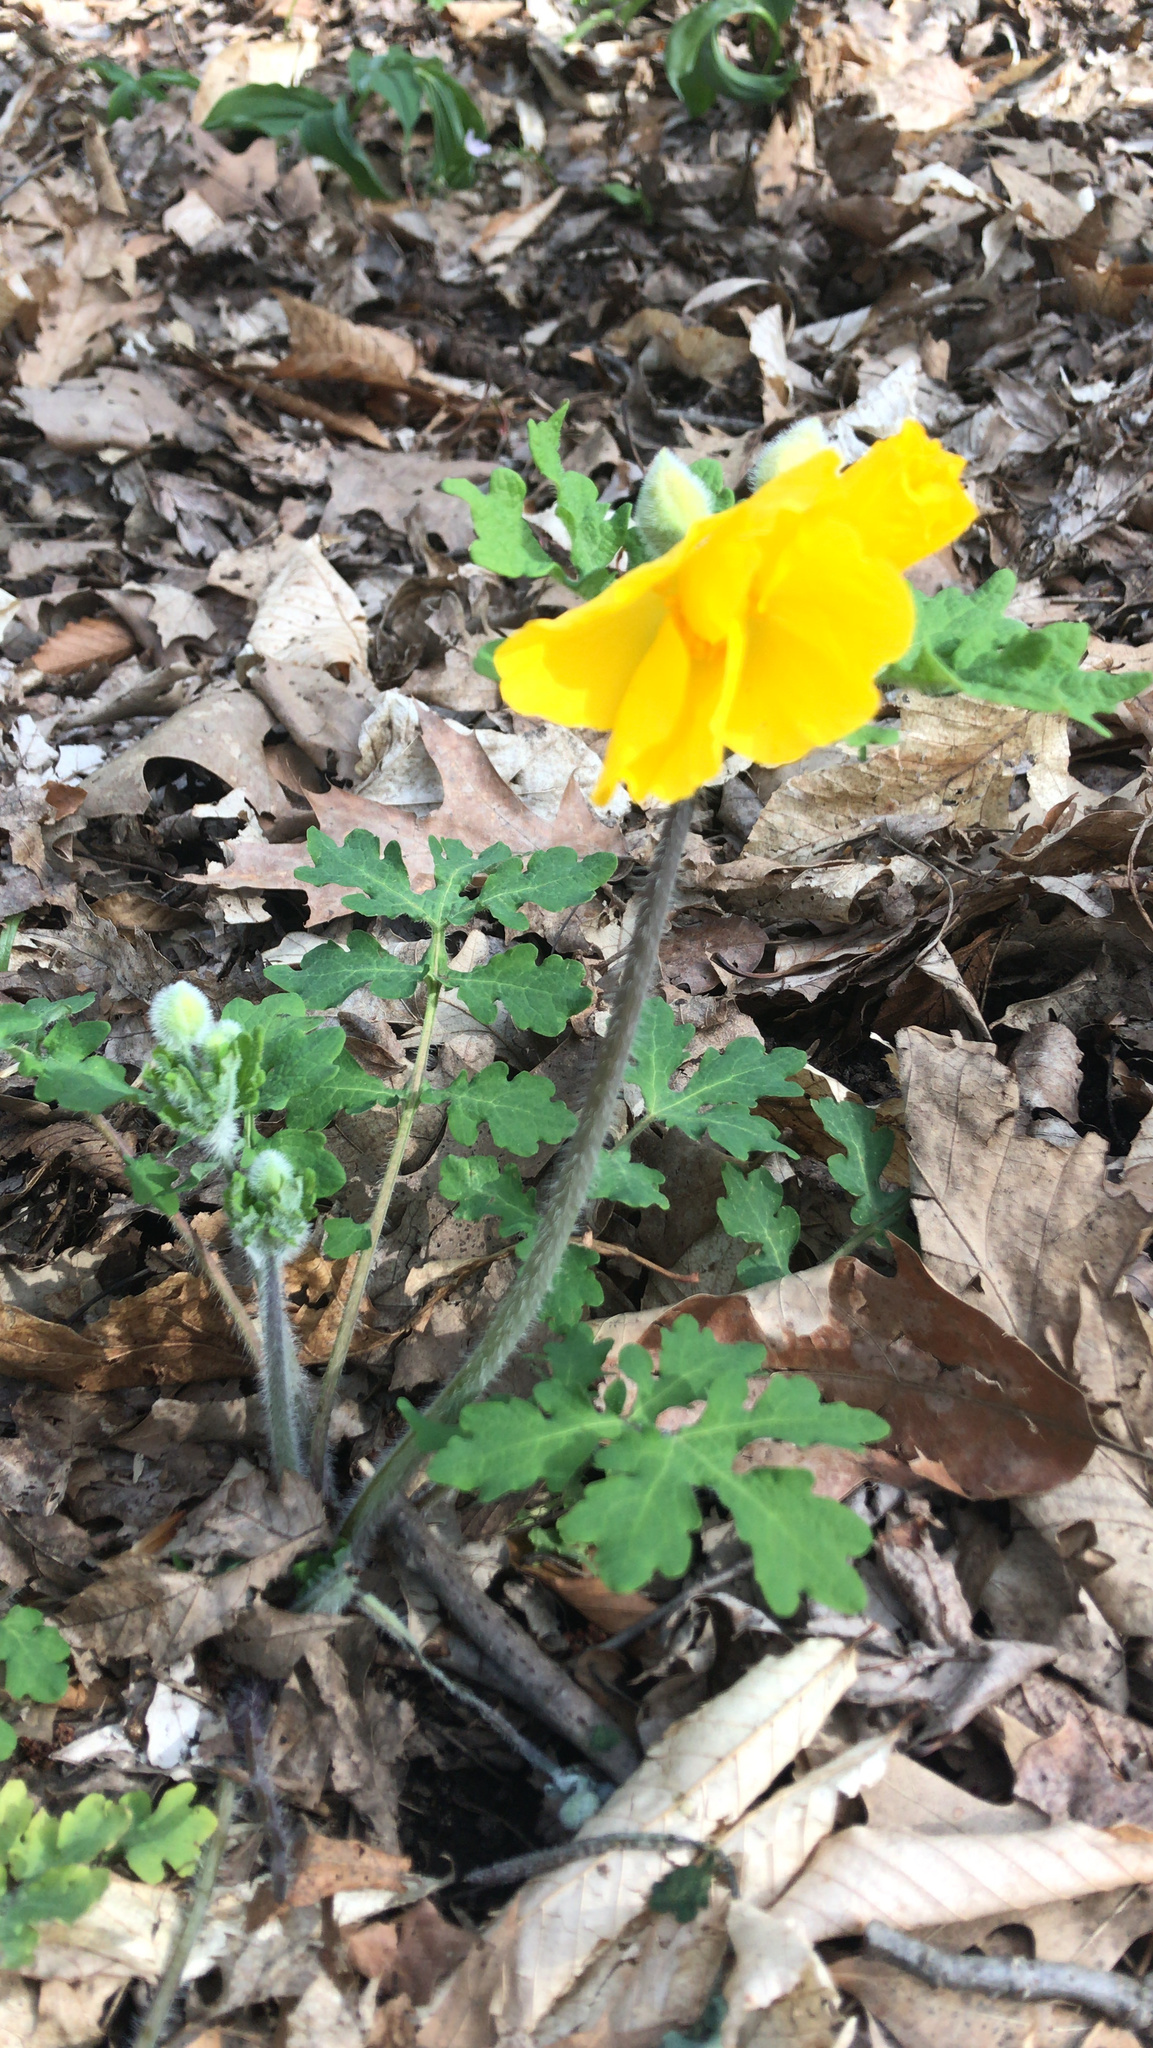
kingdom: Plantae
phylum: Tracheophyta
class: Magnoliopsida
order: Ranunculales
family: Papaveraceae
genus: Stylophorum
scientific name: Stylophorum diphyllum
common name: Celandine poppy
